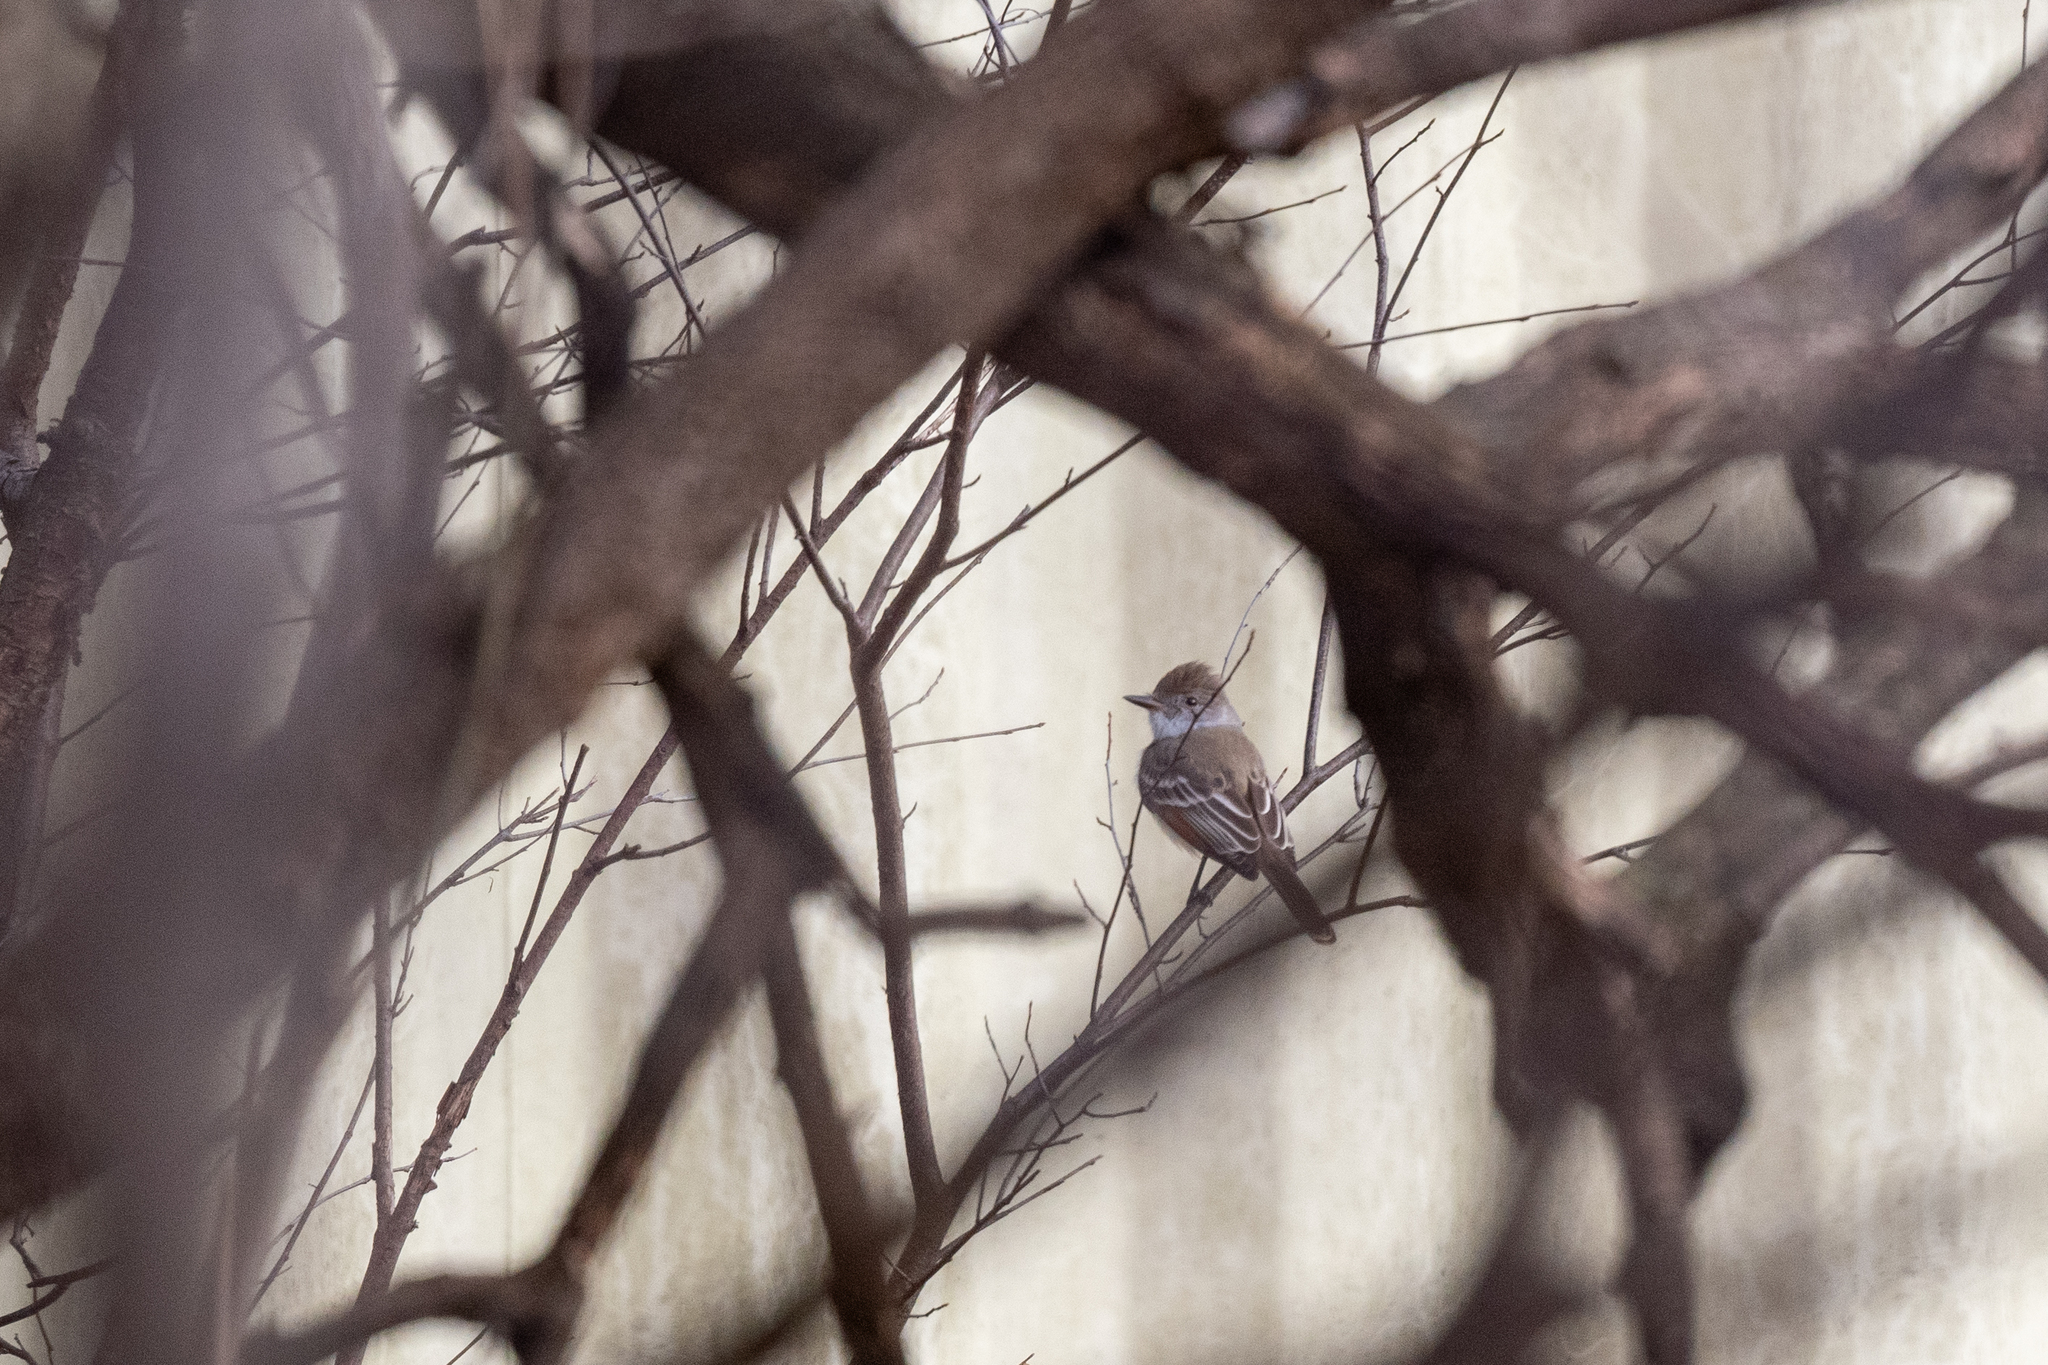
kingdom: Animalia
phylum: Chordata
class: Aves
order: Passeriformes
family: Tyrannidae
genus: Myiarchus
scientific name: Myiarchus cinerascens
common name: Ash-throated flycatcher
